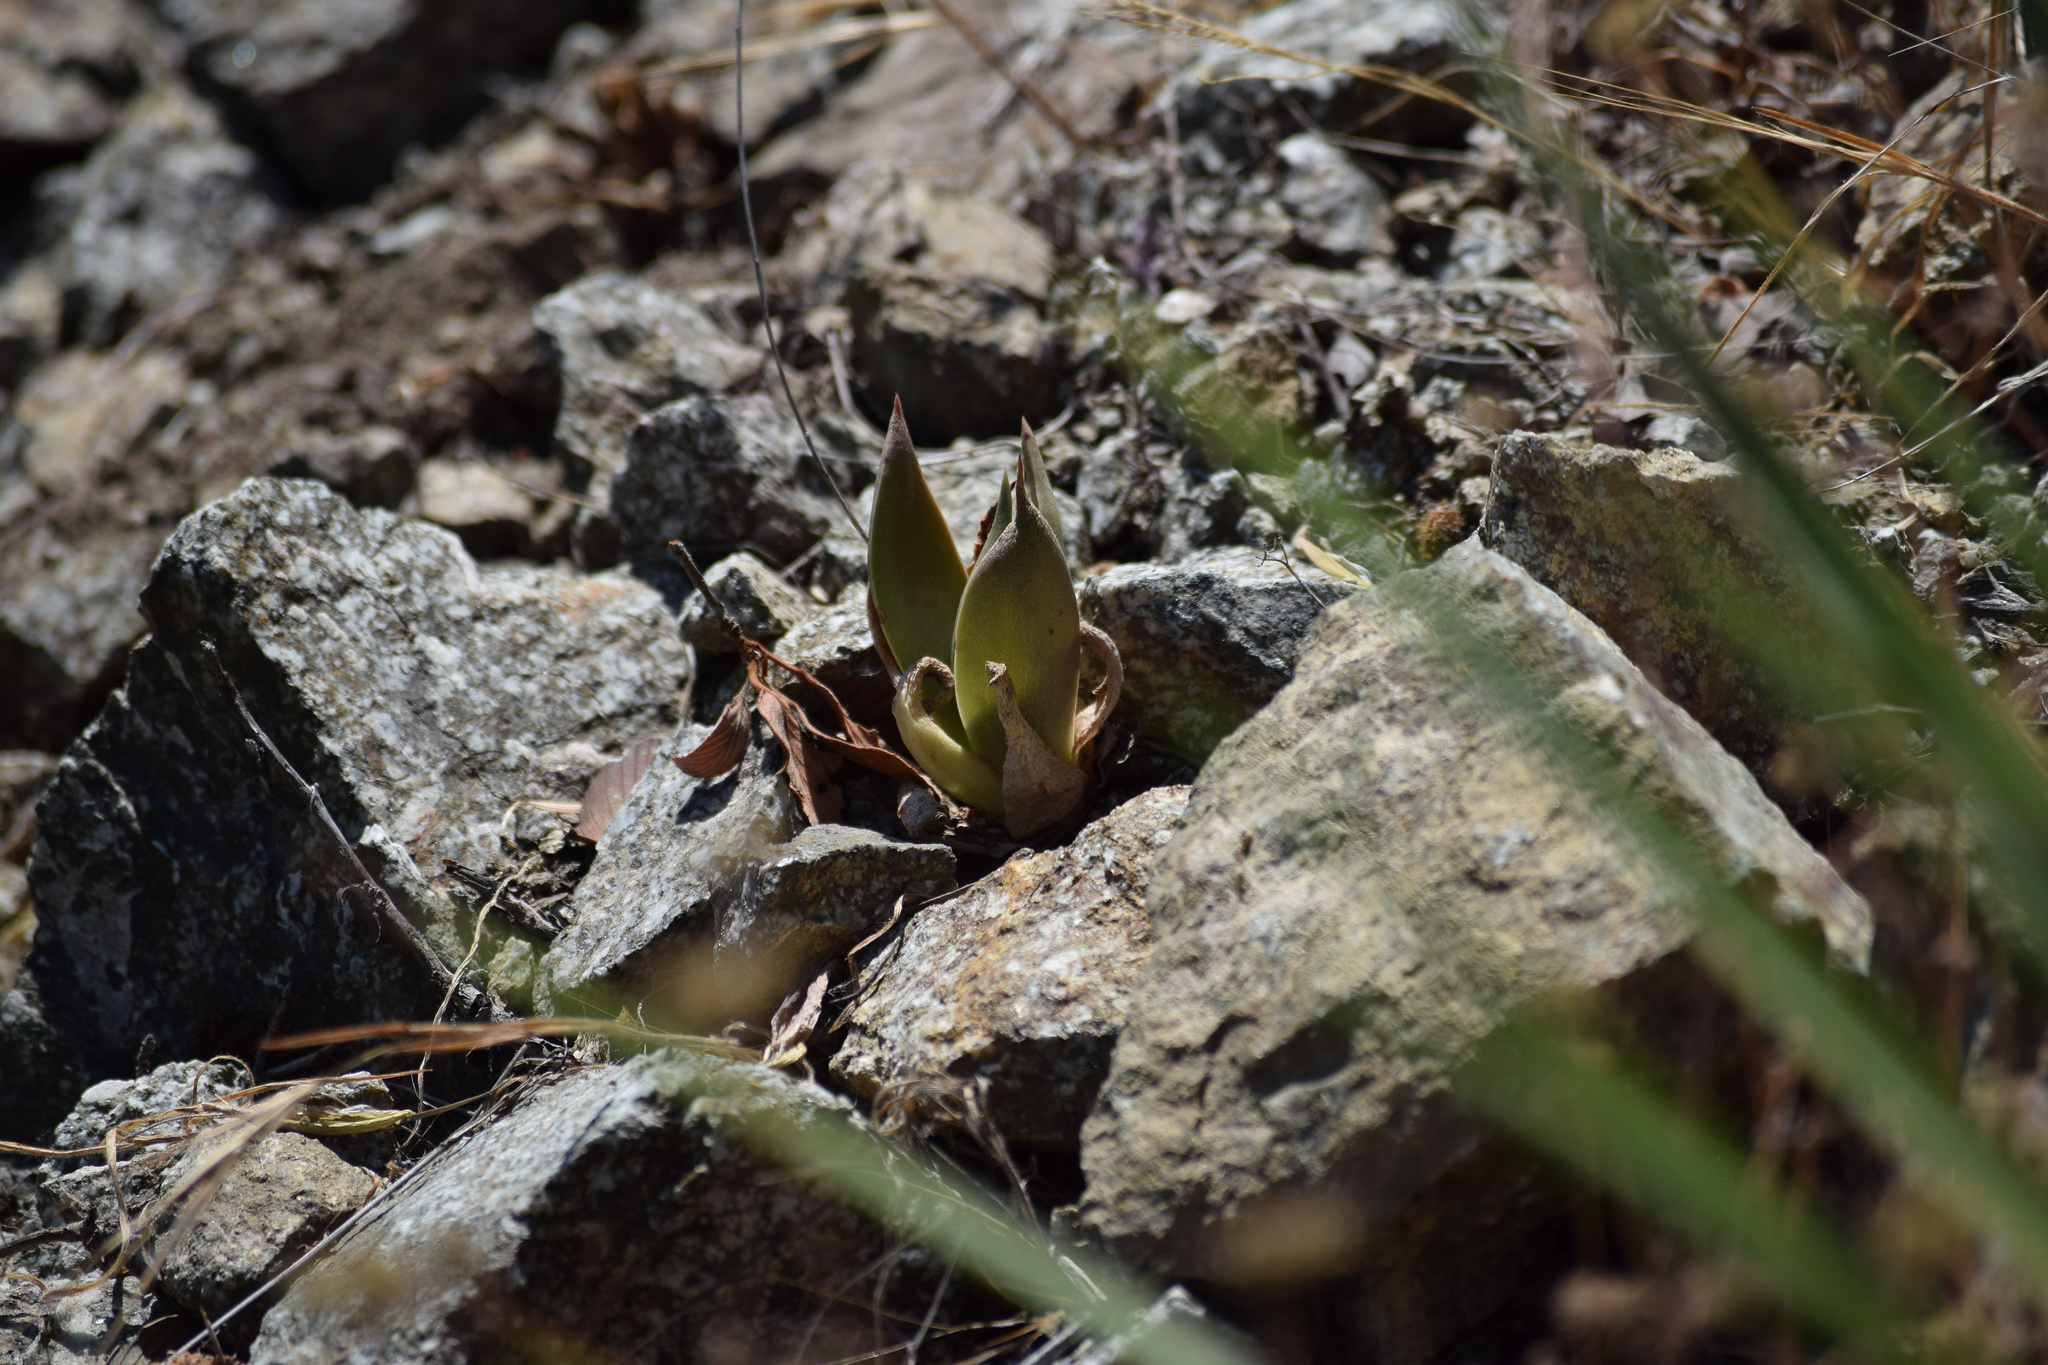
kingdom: Plantae
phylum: Tracheophyta
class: Magnoliopsida
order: Saxifragales
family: Crassulaceae
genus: Dudleya
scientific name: Dudleya lanceolata
